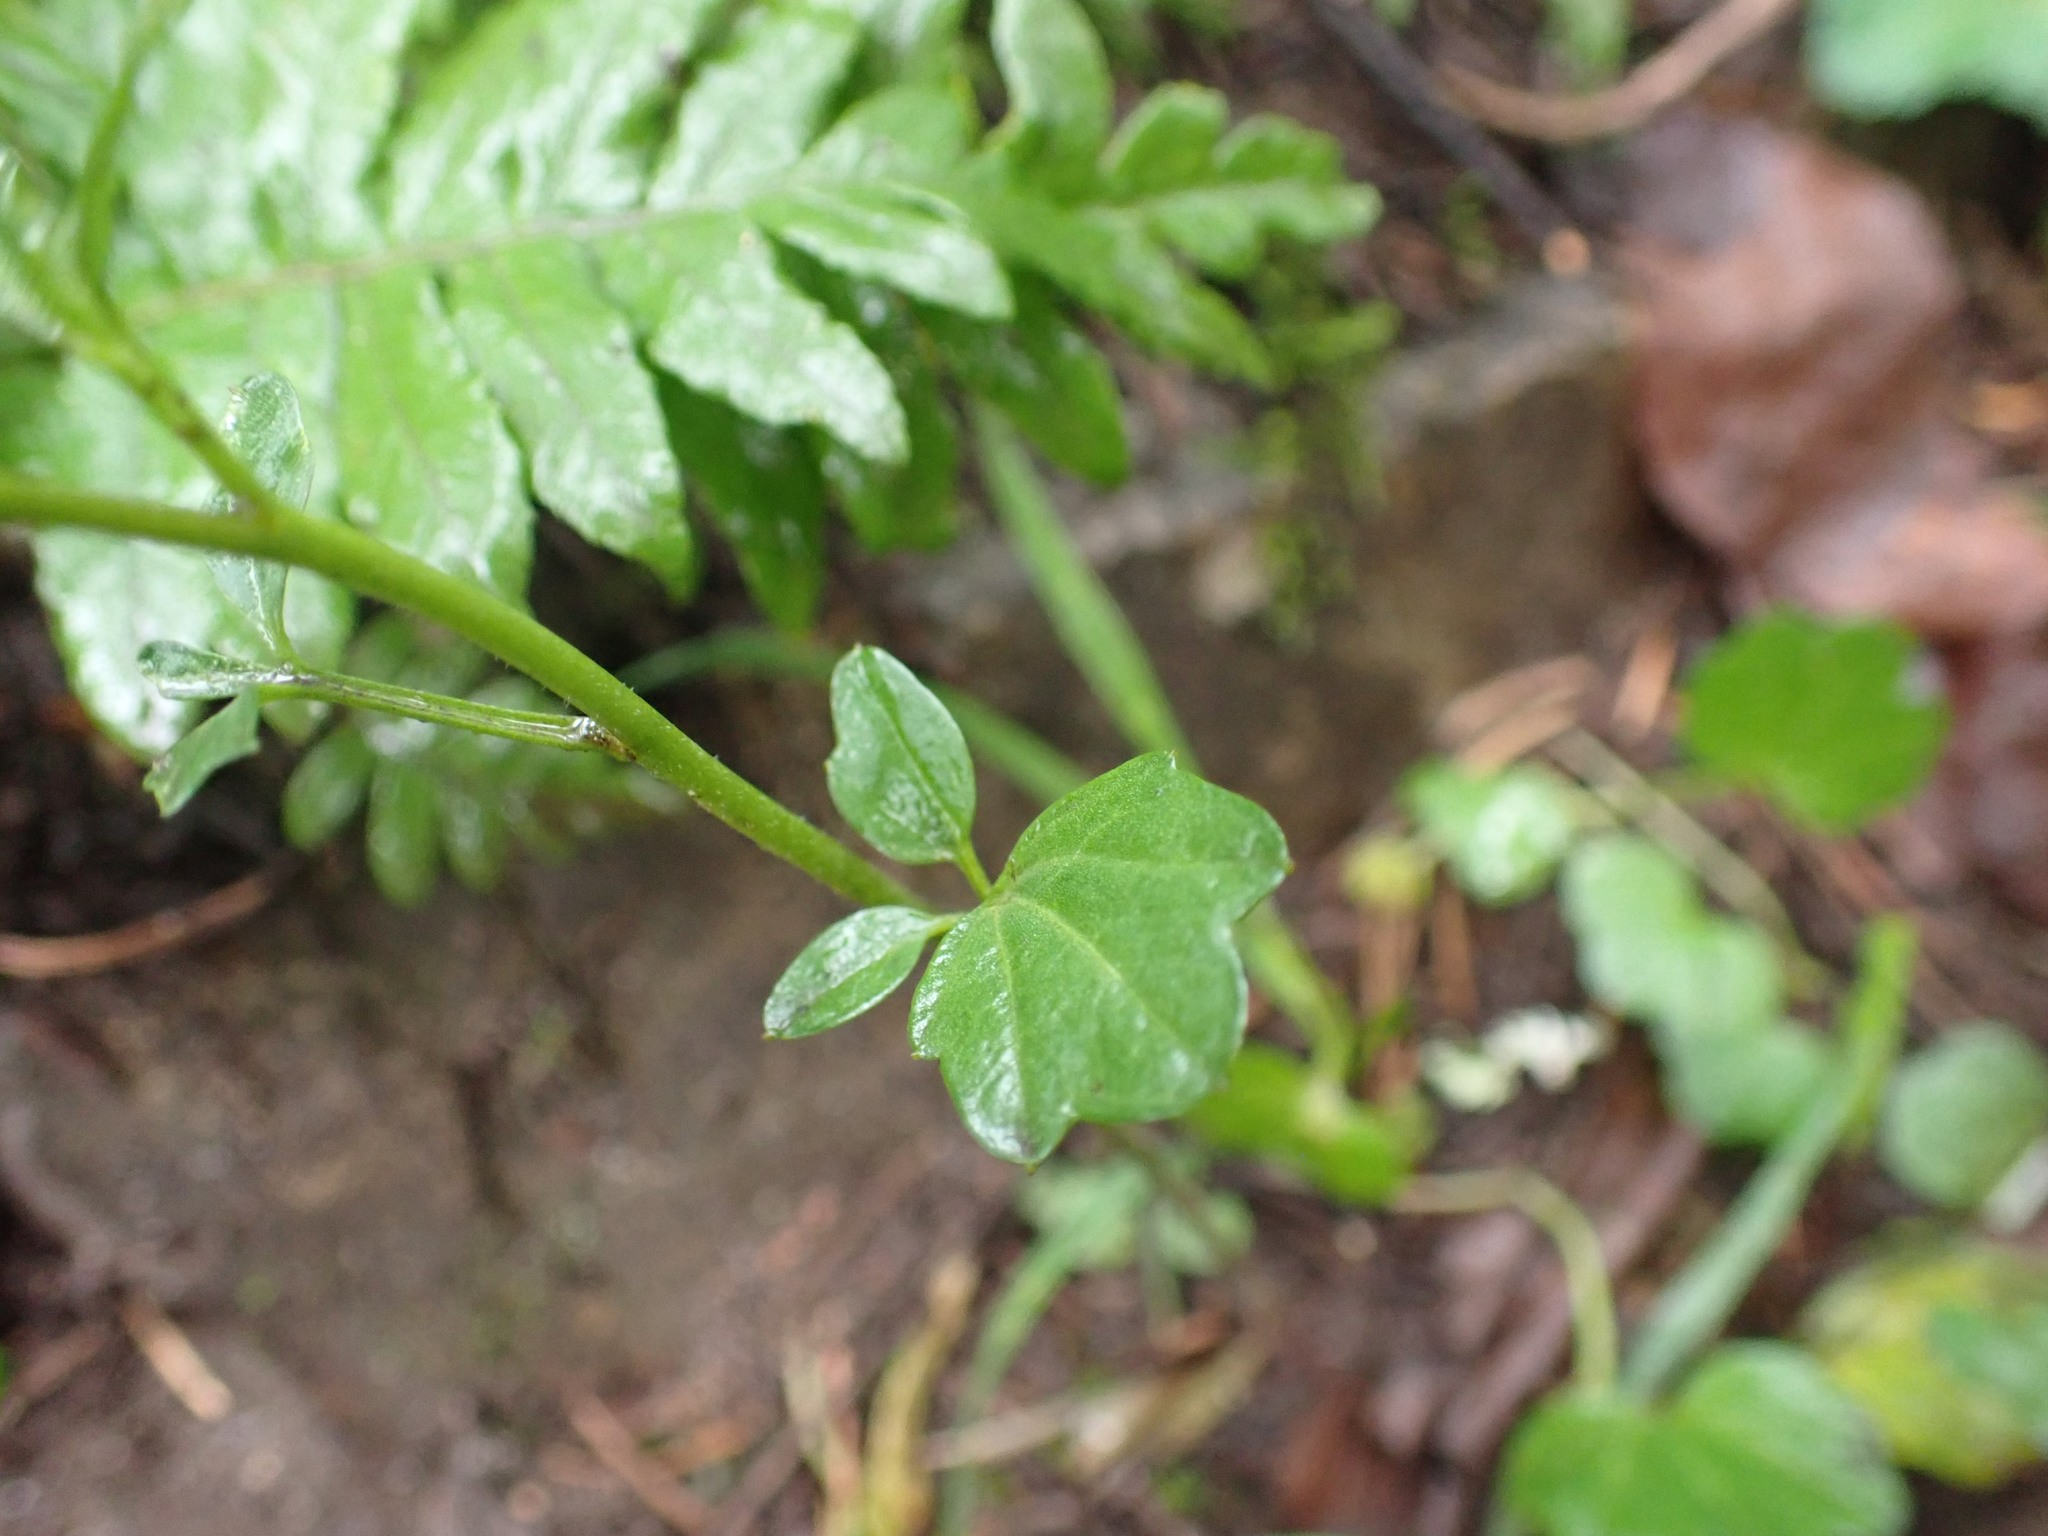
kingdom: Plantae
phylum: Tracheophyta
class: Magnoliopsida
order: Brassicales
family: Brassicaceae
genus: Cardamine
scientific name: Cardamine nuttallii
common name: Nuttall's toothwort
